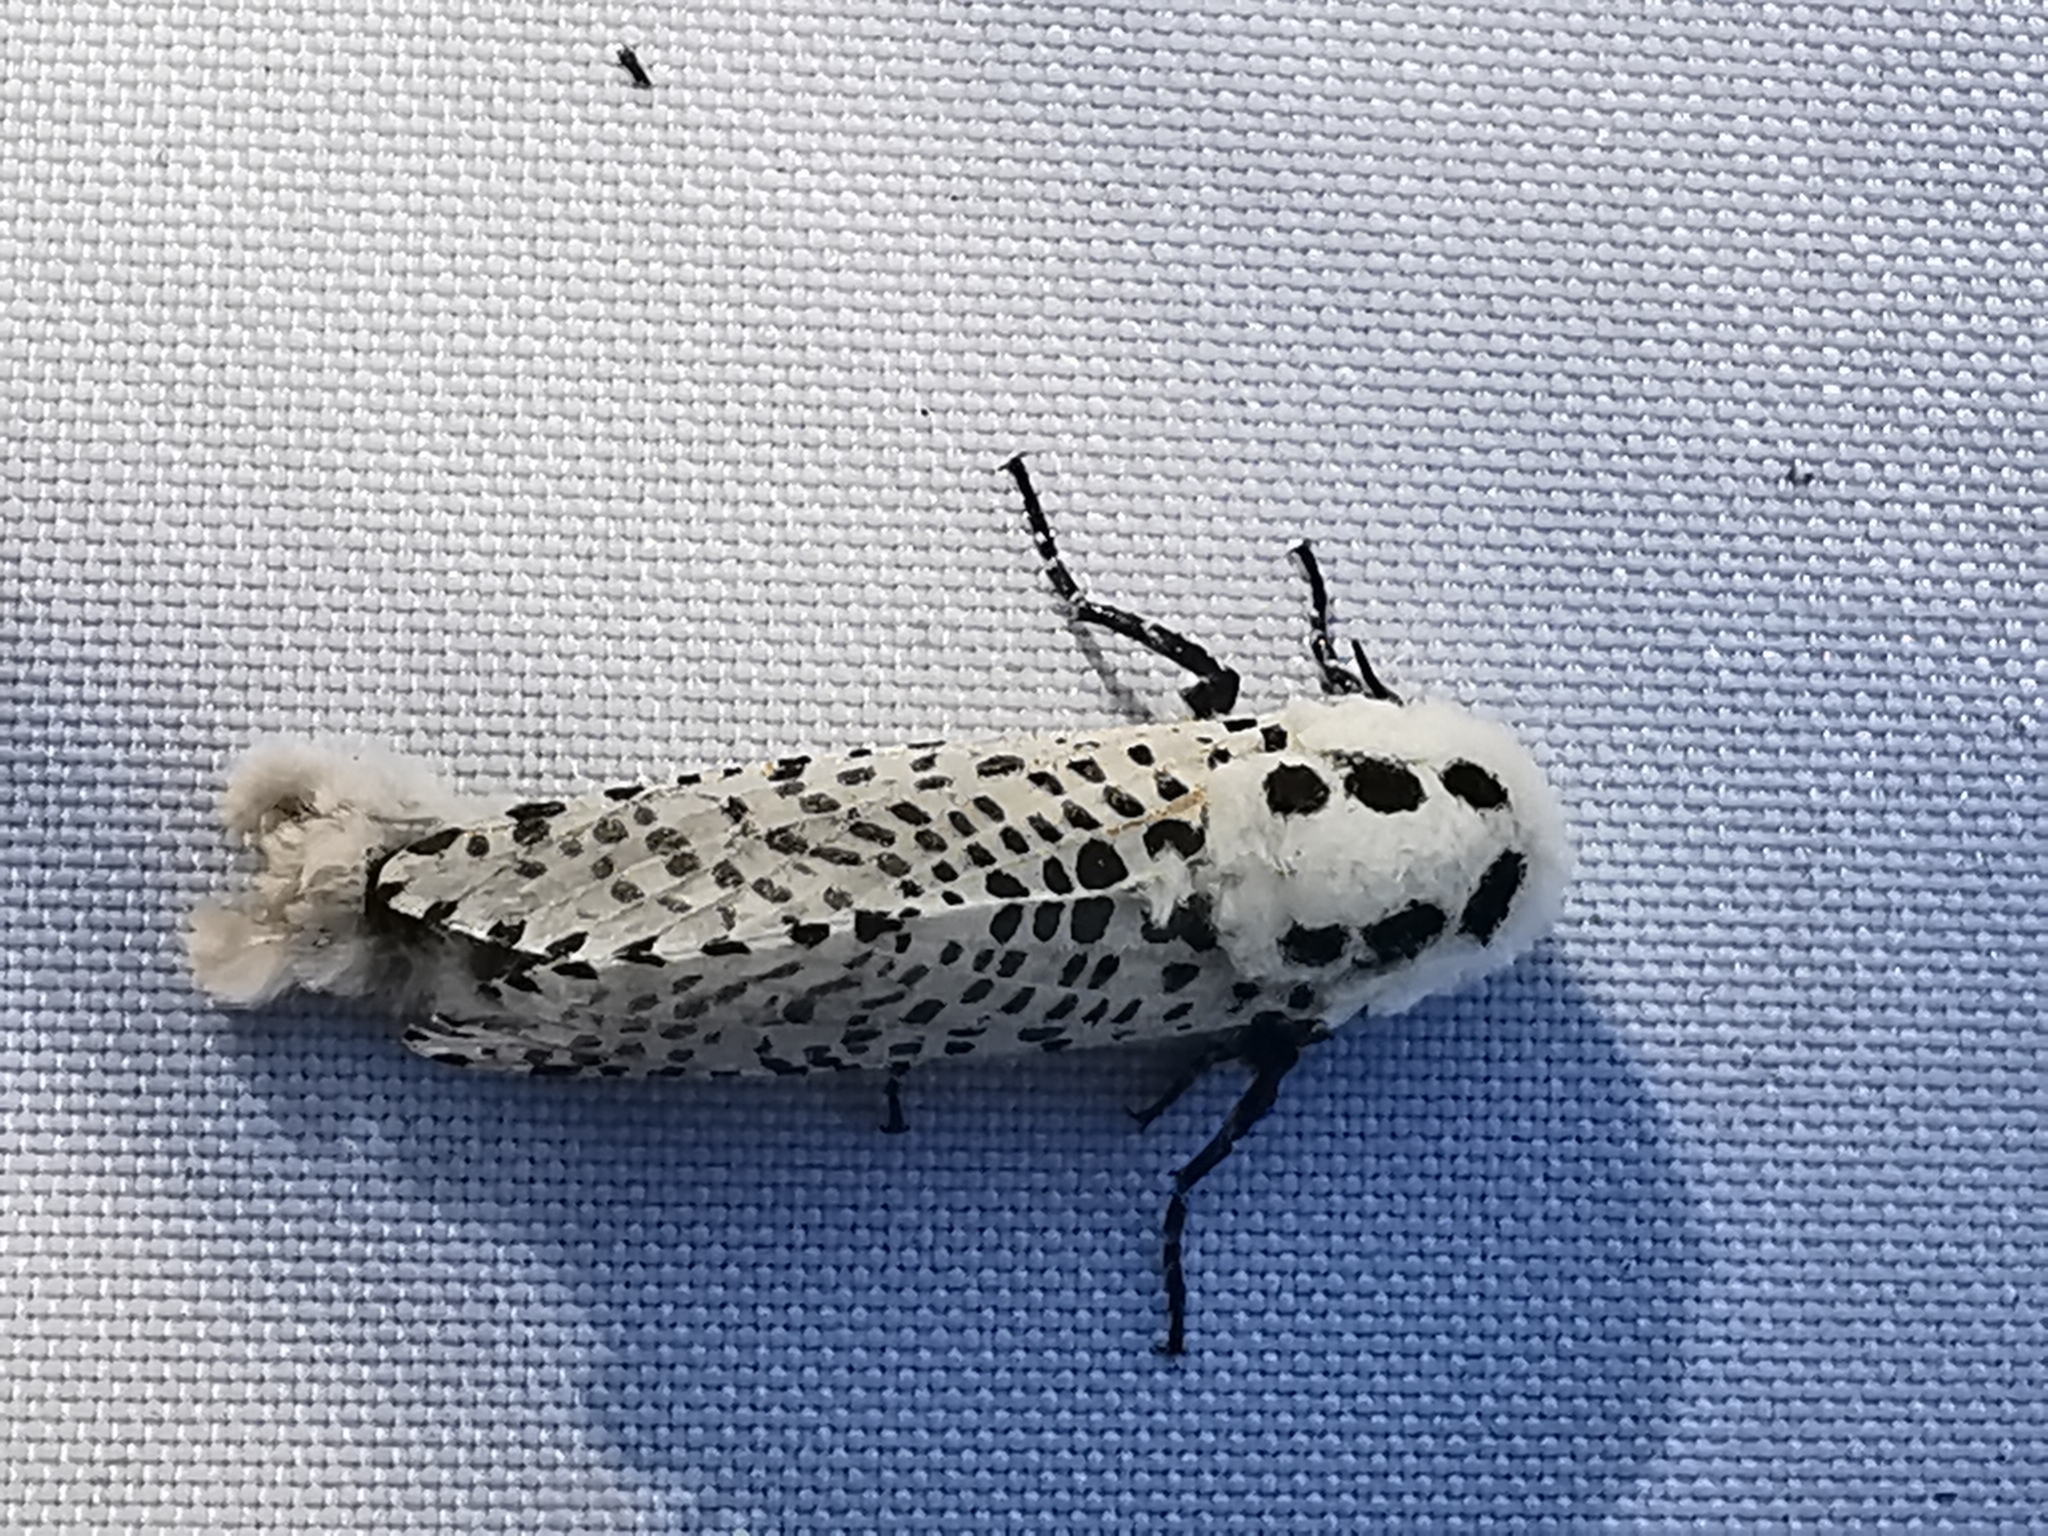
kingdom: Animalia
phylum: Arthropoda
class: Insecta
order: Lepidoptera
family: Cossidae
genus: Zeuzera
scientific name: Zeuzera pyrina
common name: Leopard moth
